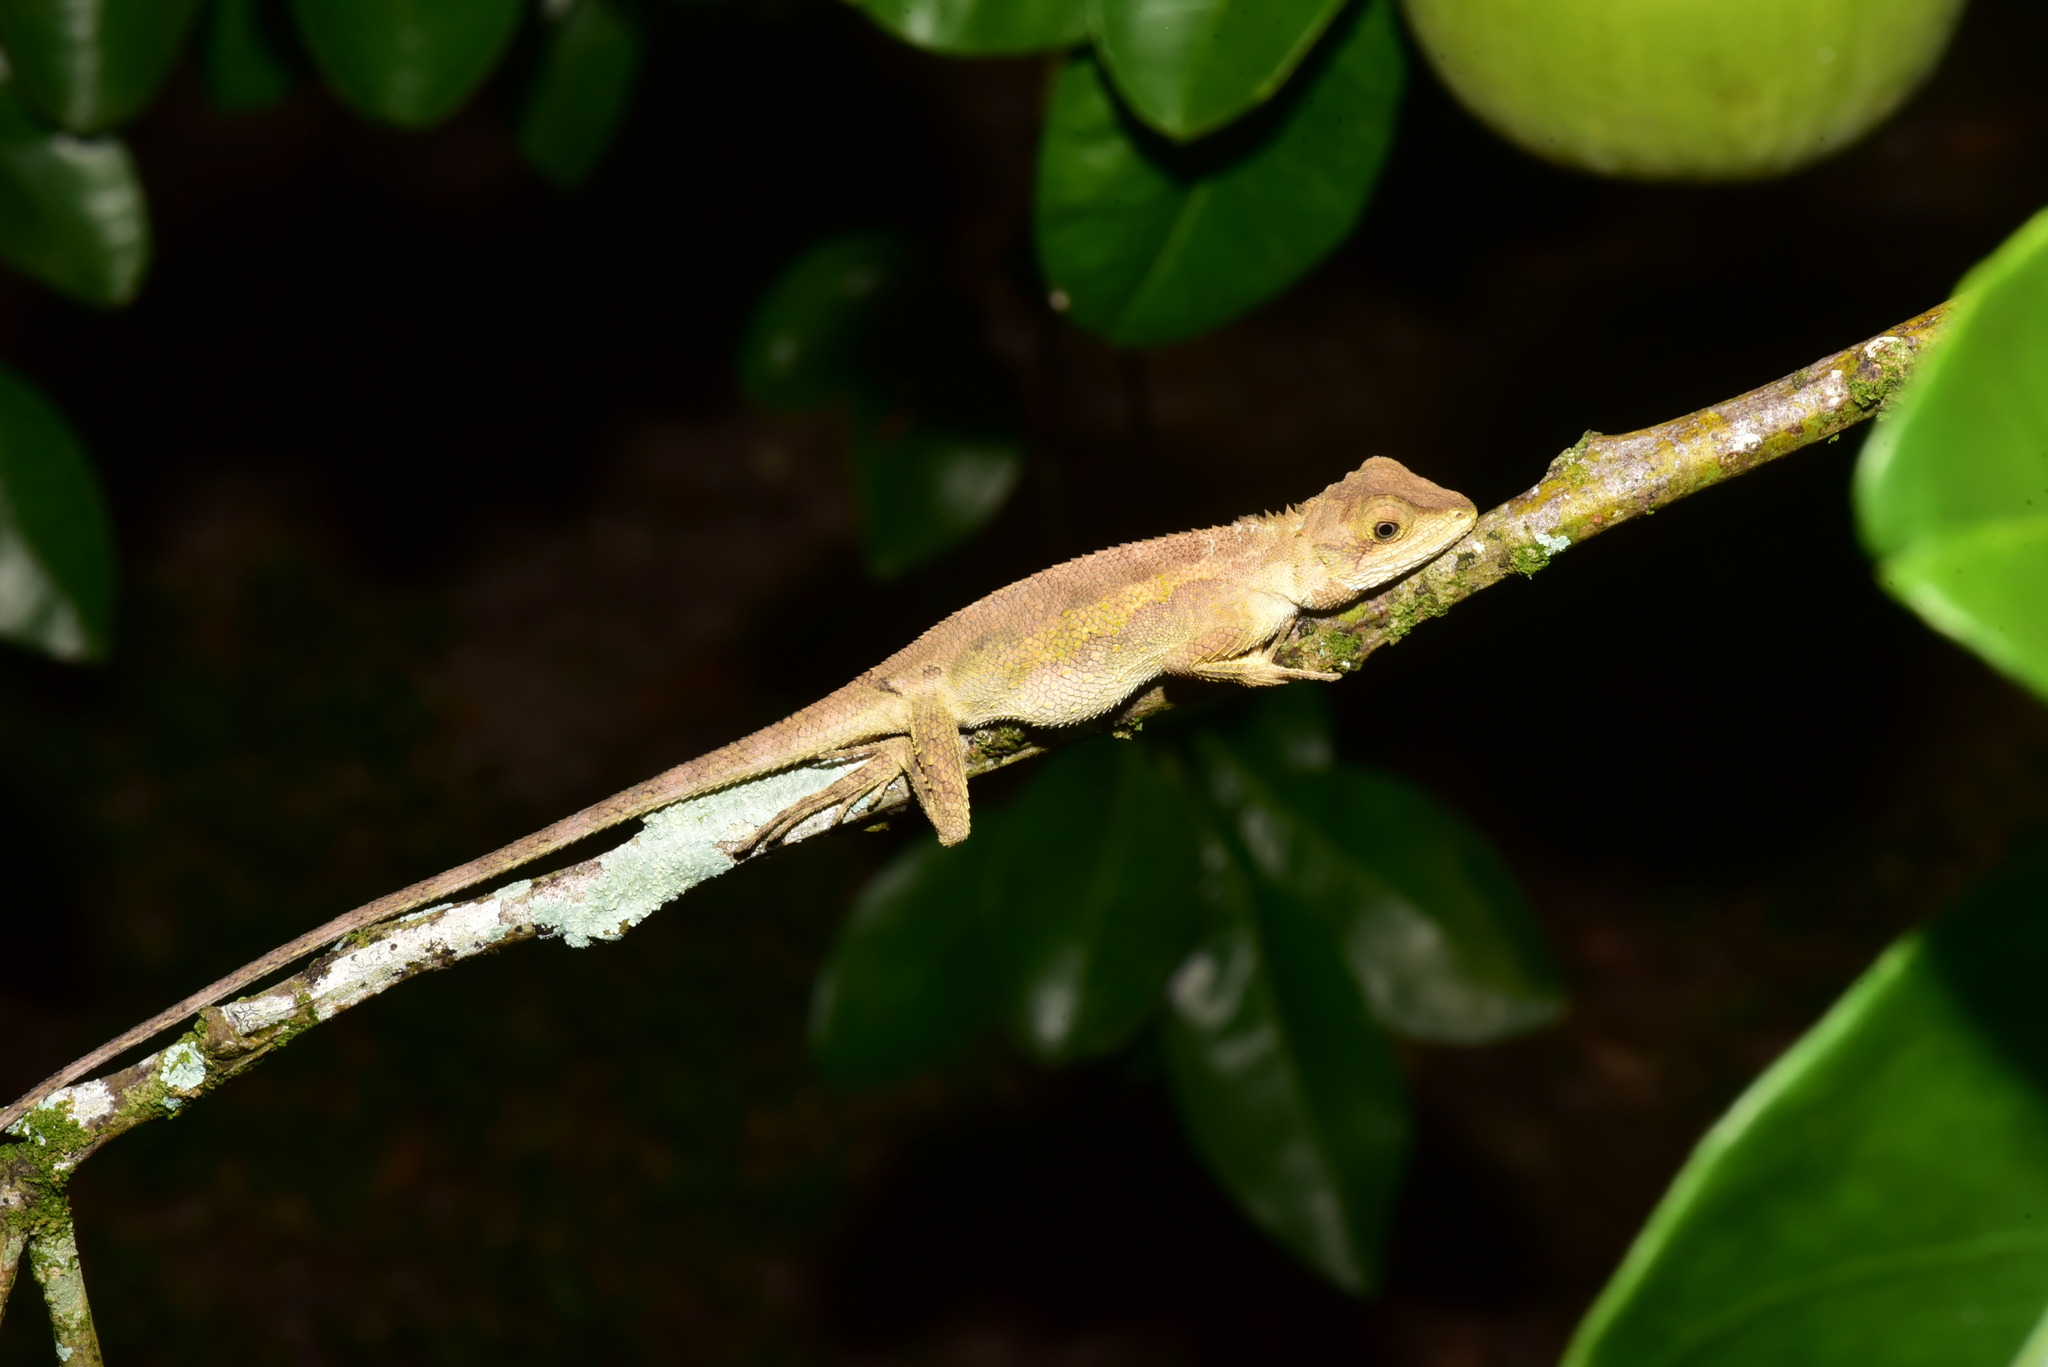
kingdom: Animalia
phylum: Chordata
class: Squamata
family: Agamidae
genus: Diploderma
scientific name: Diploderma swinhonis
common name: Taiwan japalure
